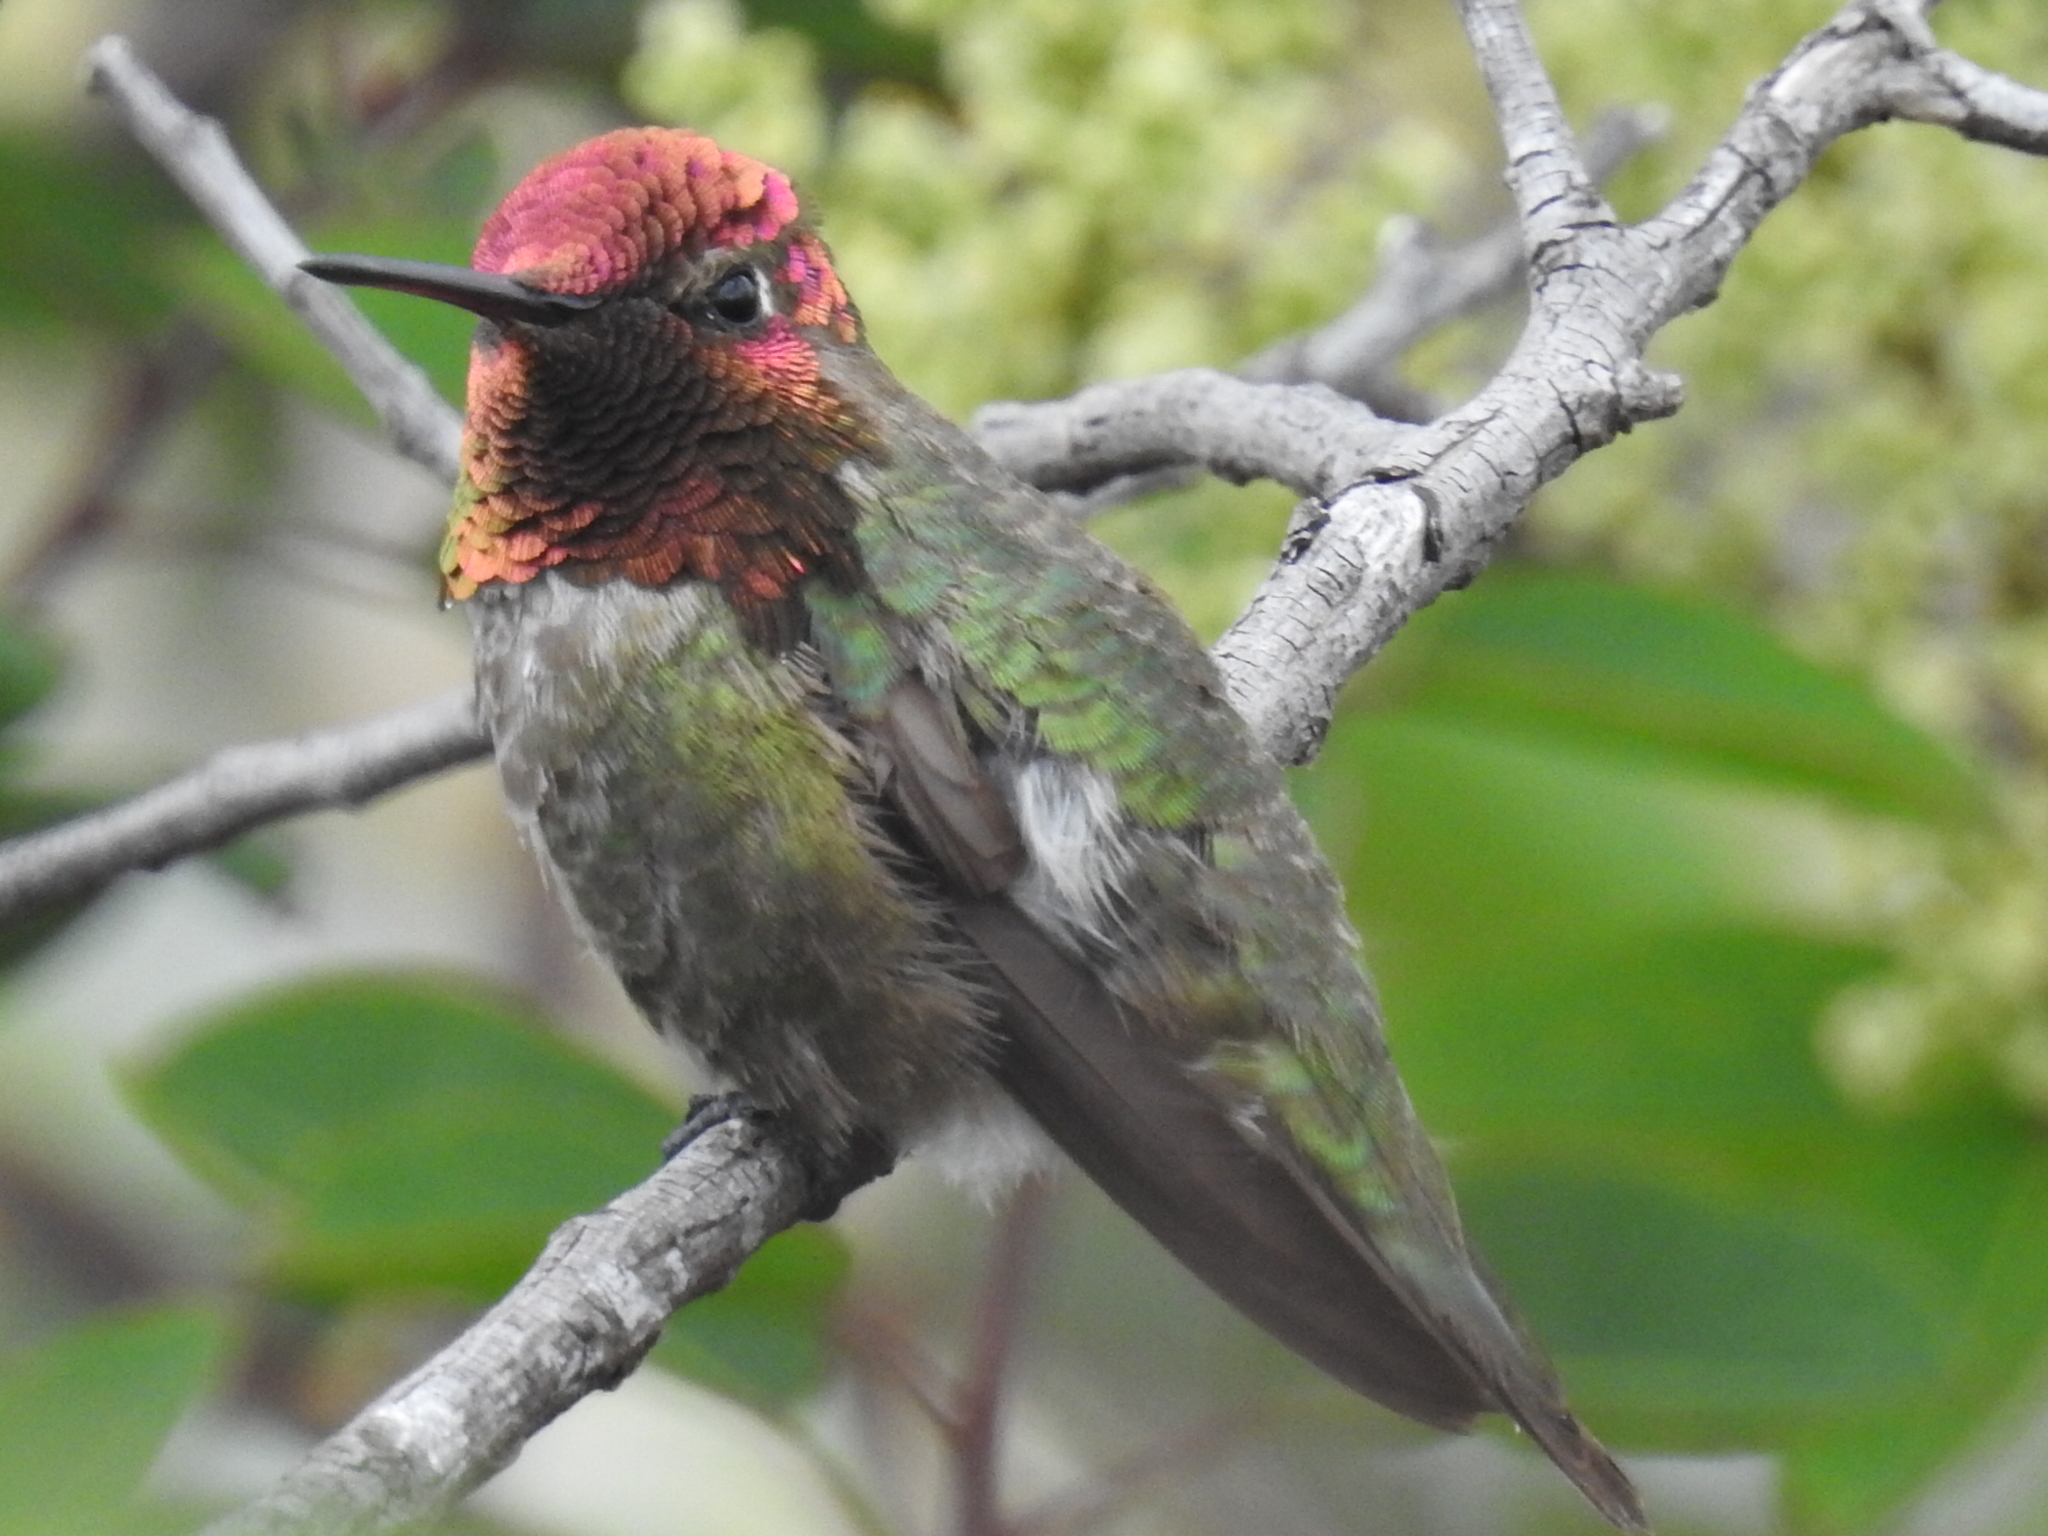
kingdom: Animalia
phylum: Chordata
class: Aves
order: Apodiformes
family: Trochilidae
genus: Calypte
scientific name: Calypte anna
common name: Anna's hummingbird
